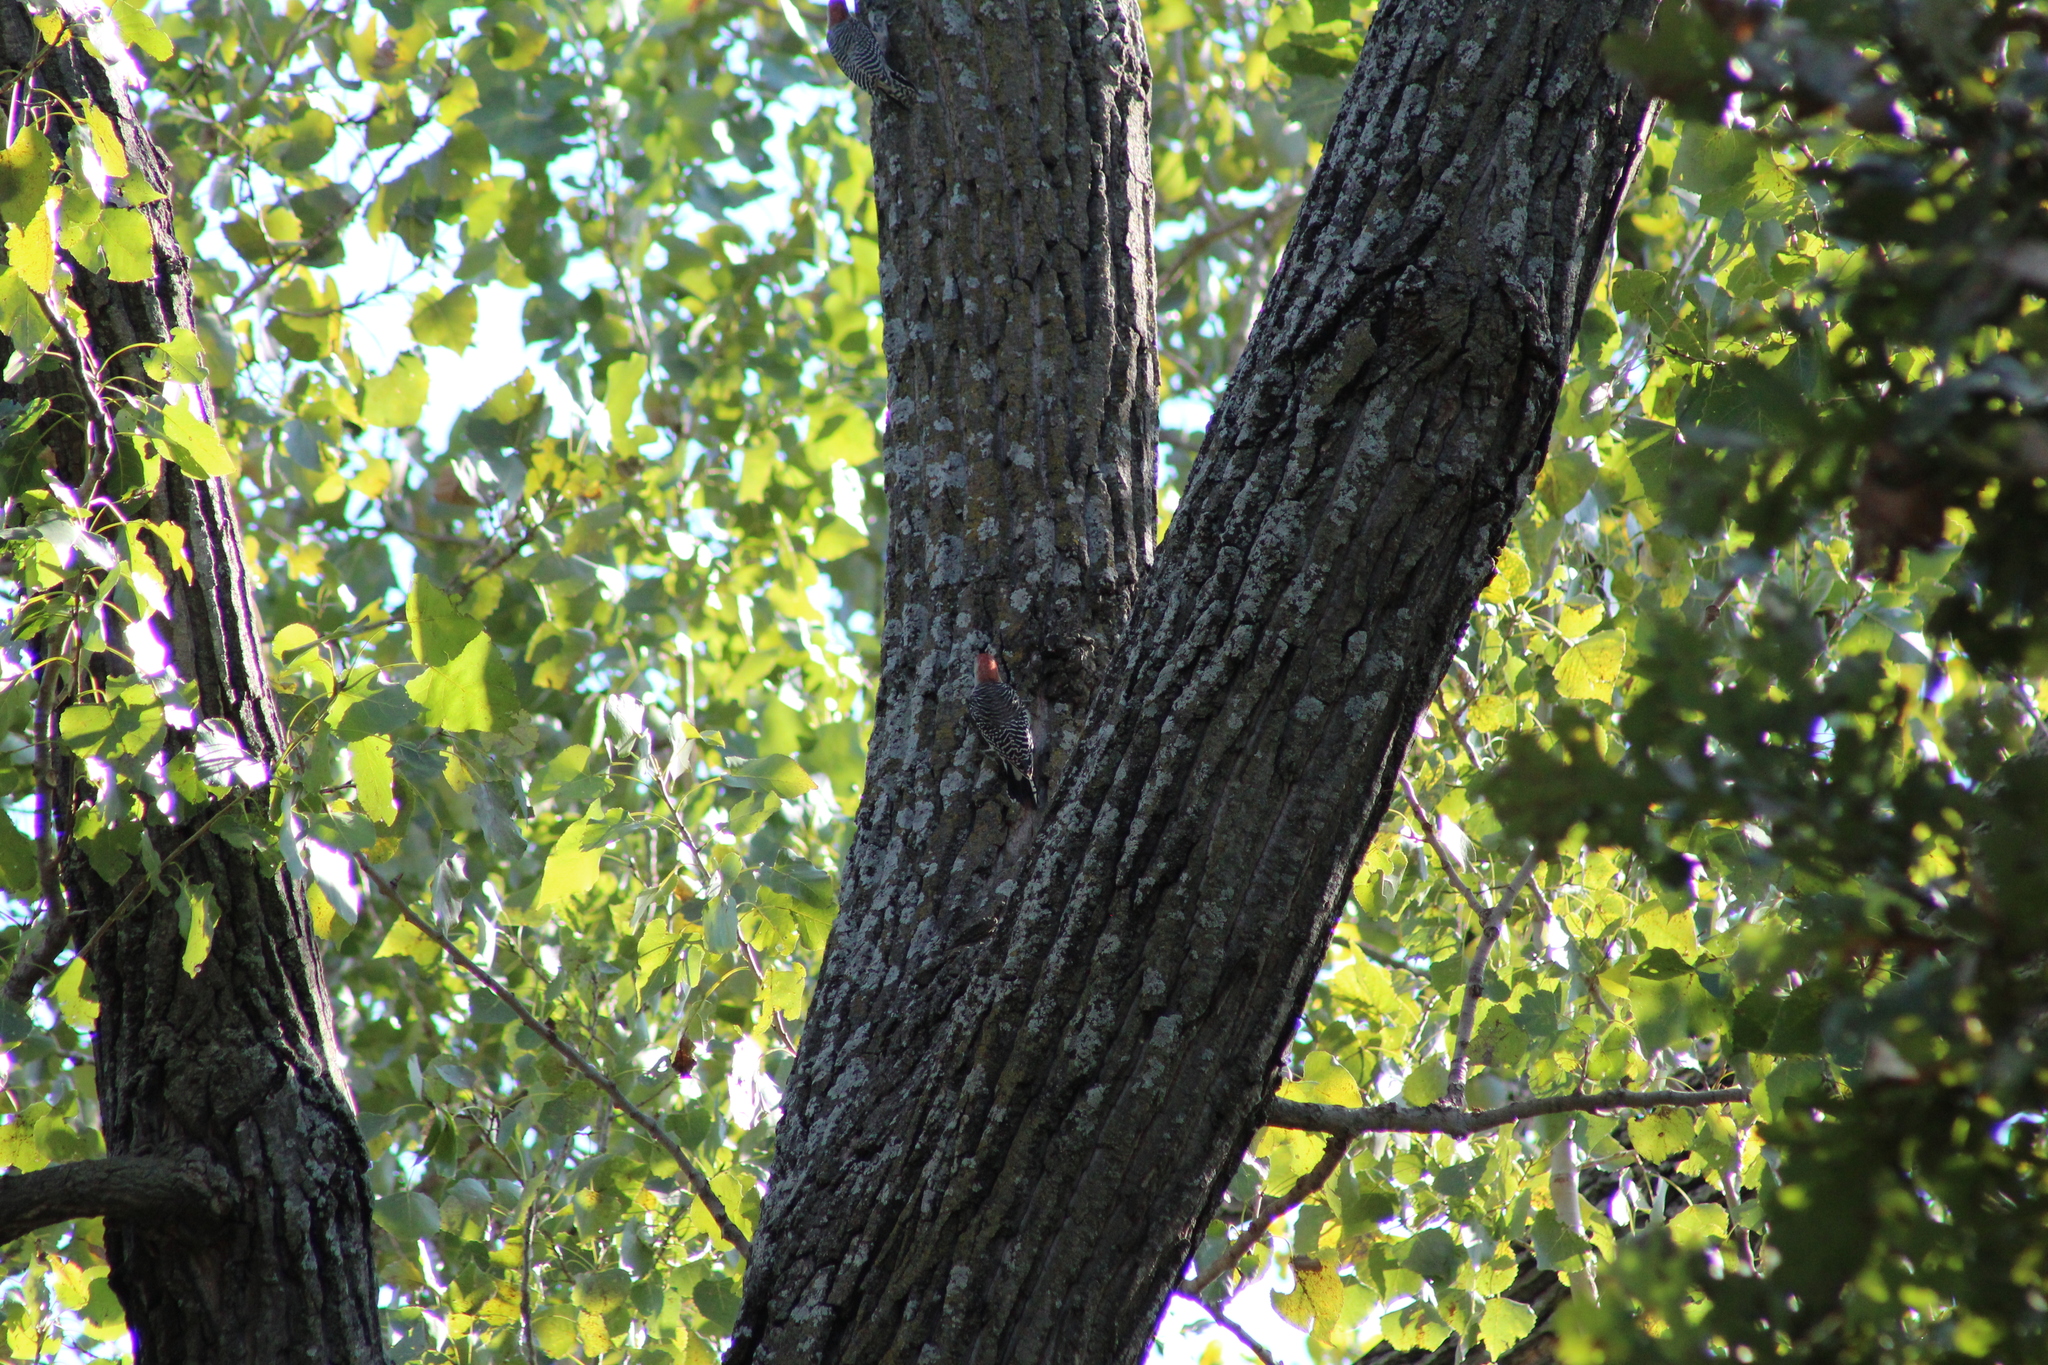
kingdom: Animalia
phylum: Chordata
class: Aves
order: Piciformes
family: Picidae
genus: Melanerpes
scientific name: Melanerpes carolinus
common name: Red-bellied woodpecker
